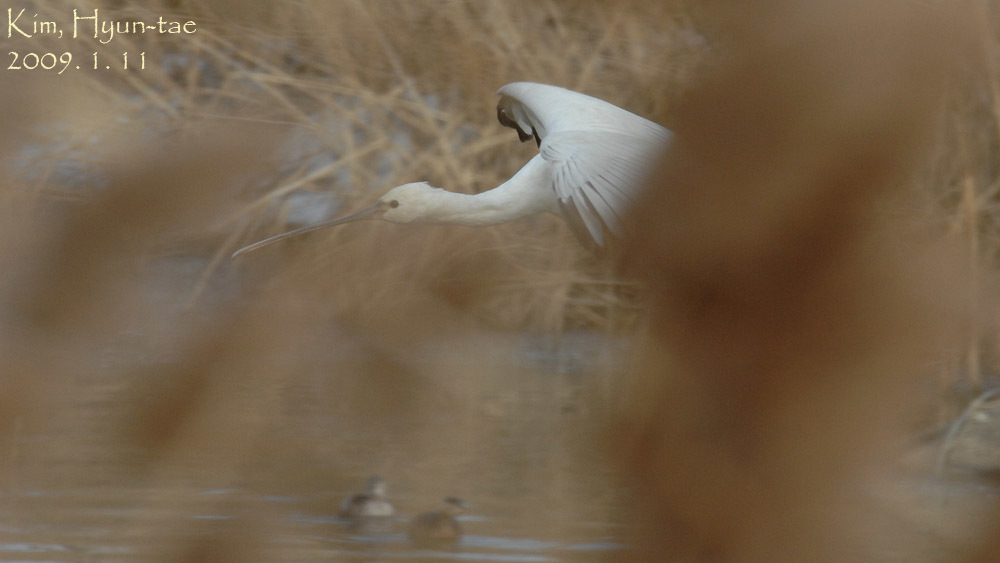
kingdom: Animalia
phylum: Chordata
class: Aves
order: Pelecaniformes
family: Threskiornithidae
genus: Platalea
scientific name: Platalea leucorodia
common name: Eurasian spoonbill
